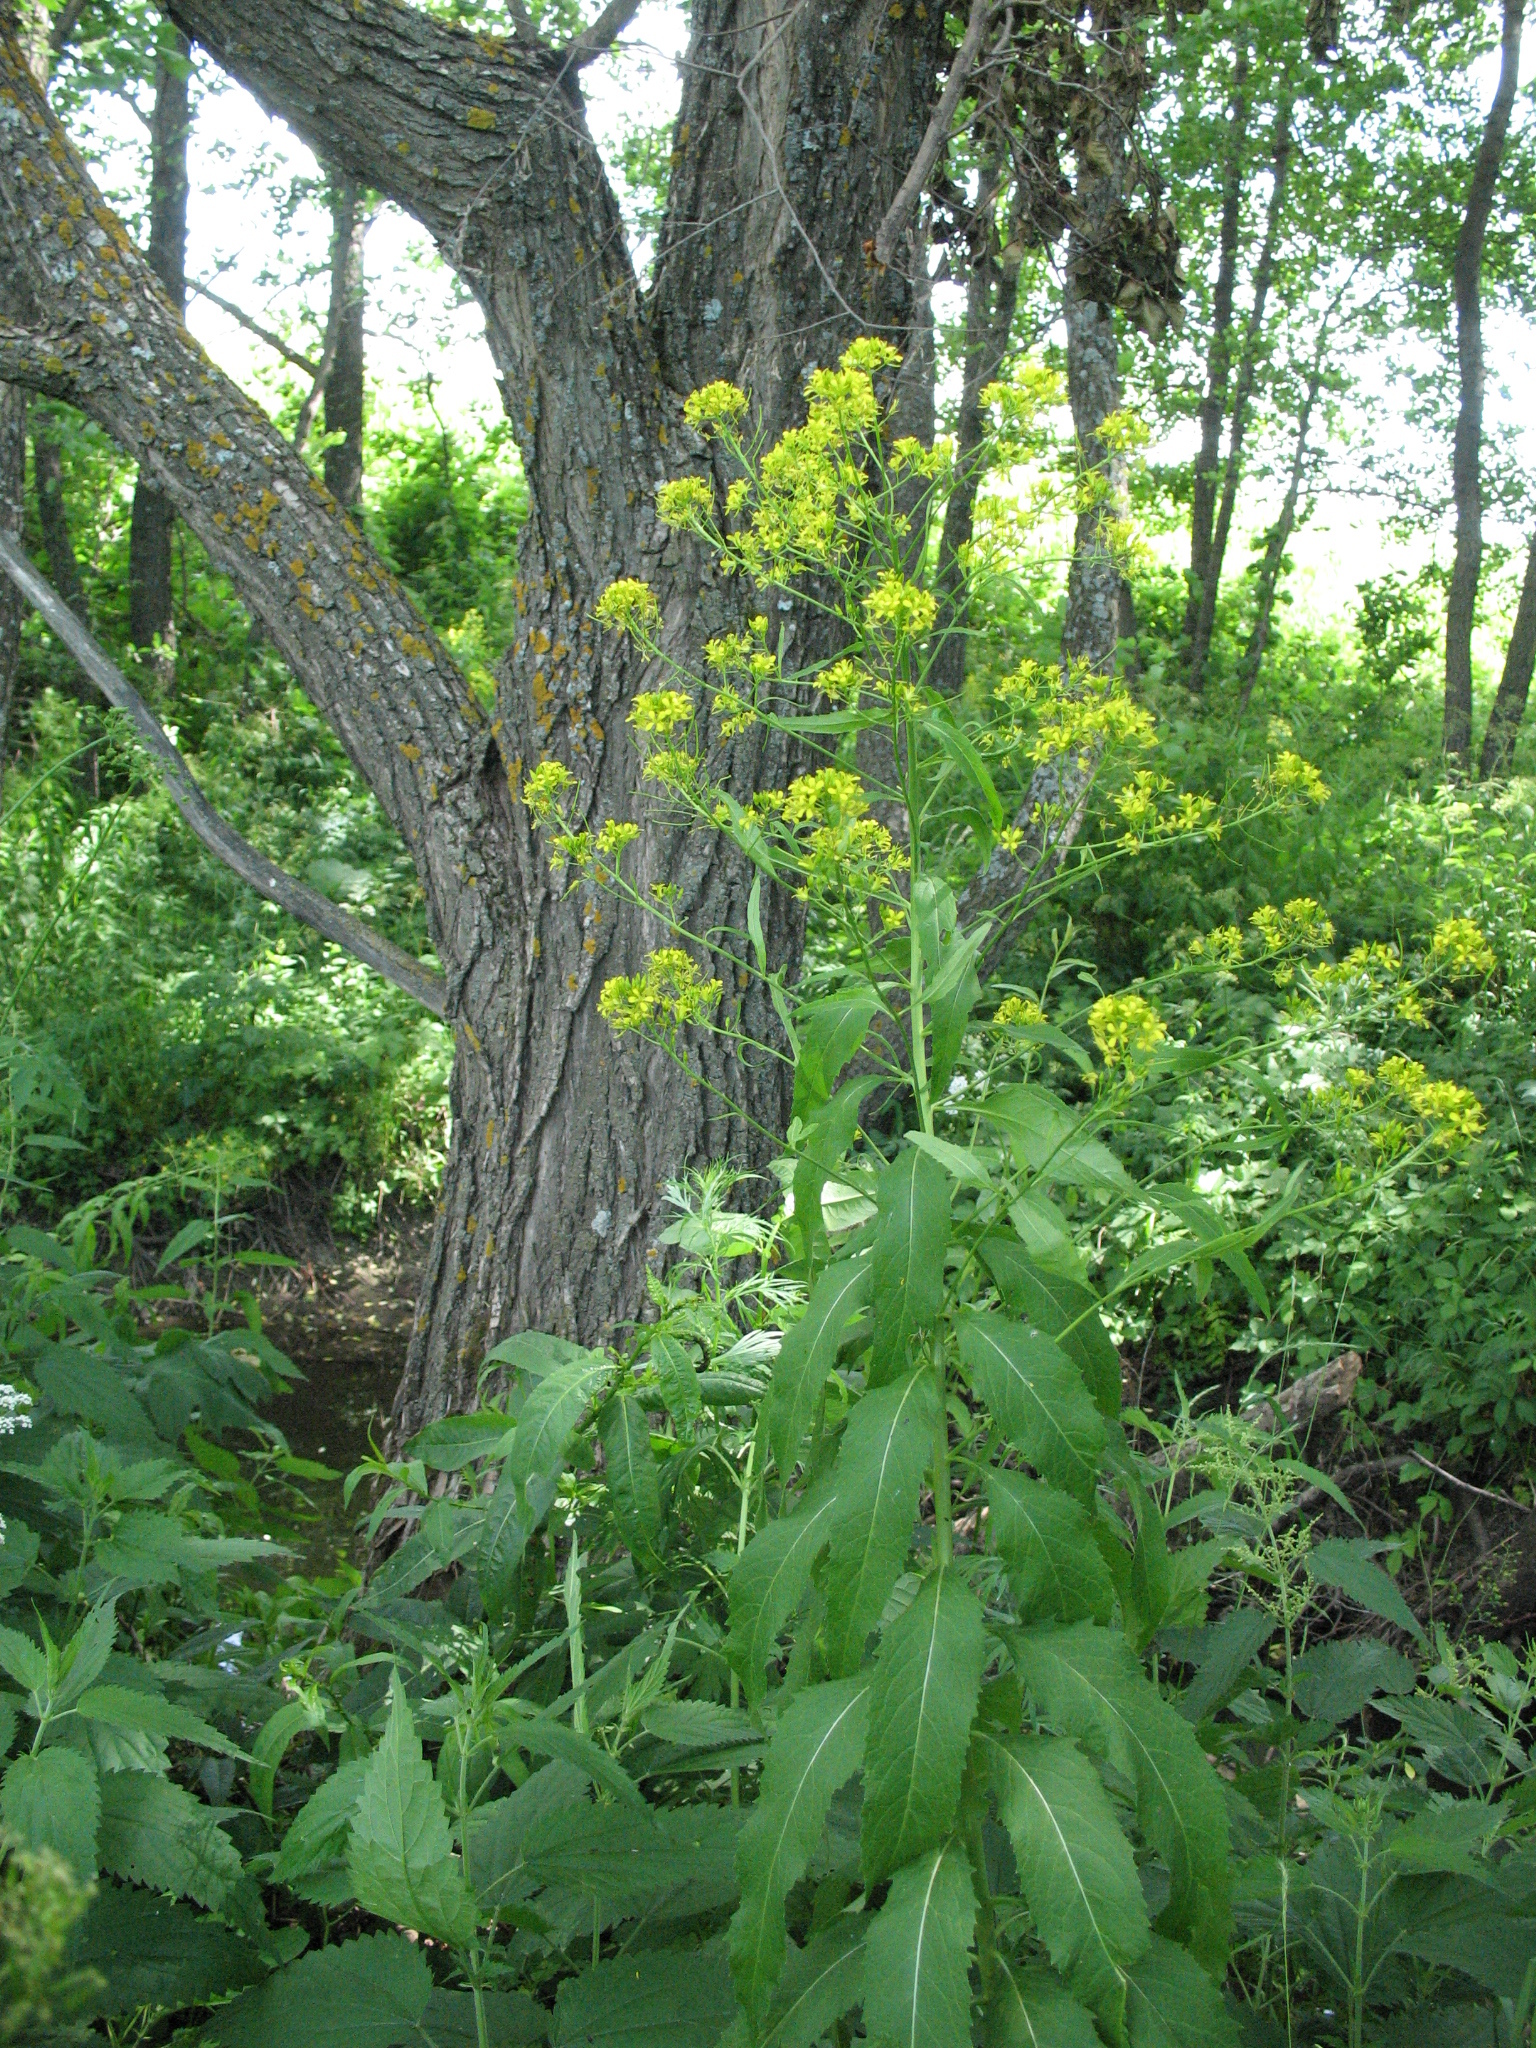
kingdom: Plantae
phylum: Tracheophyta
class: Magnoliopsida
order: Brassicales
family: Brassicaceae
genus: Sisymbrium
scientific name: Sisymbrium strictissimum
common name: Perennial rocket
